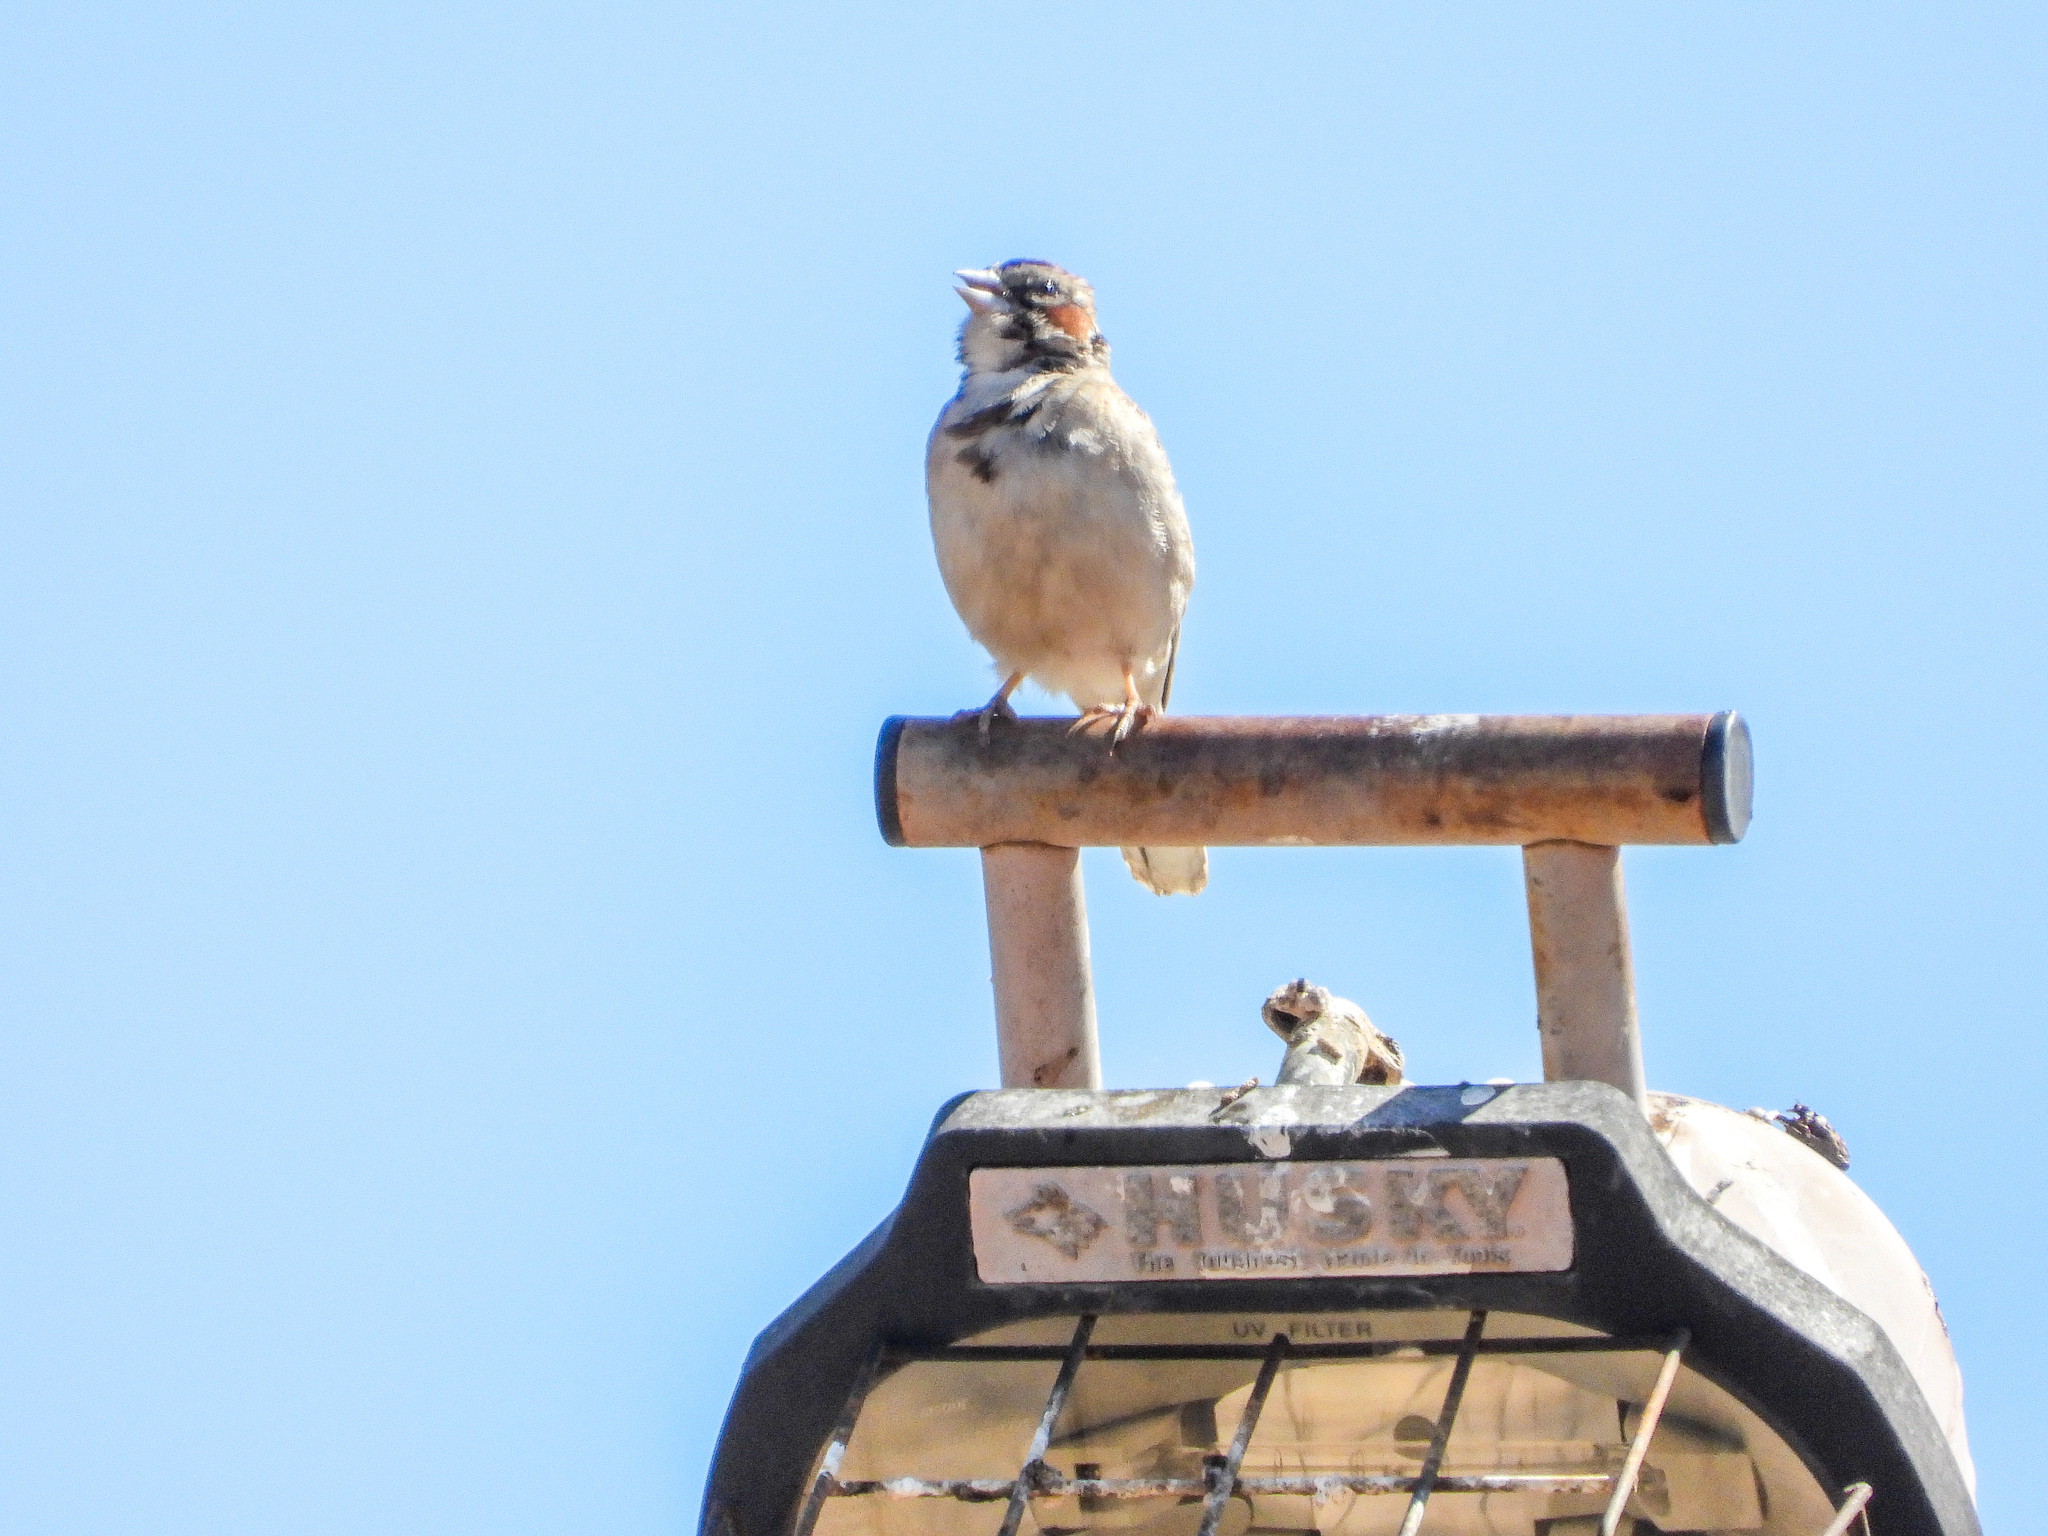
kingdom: Animalia
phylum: Chordata
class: Aves
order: Passeriformes
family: Passerellidae
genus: Chondestes
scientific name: Chondestes grammacus
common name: Lark sparrow
